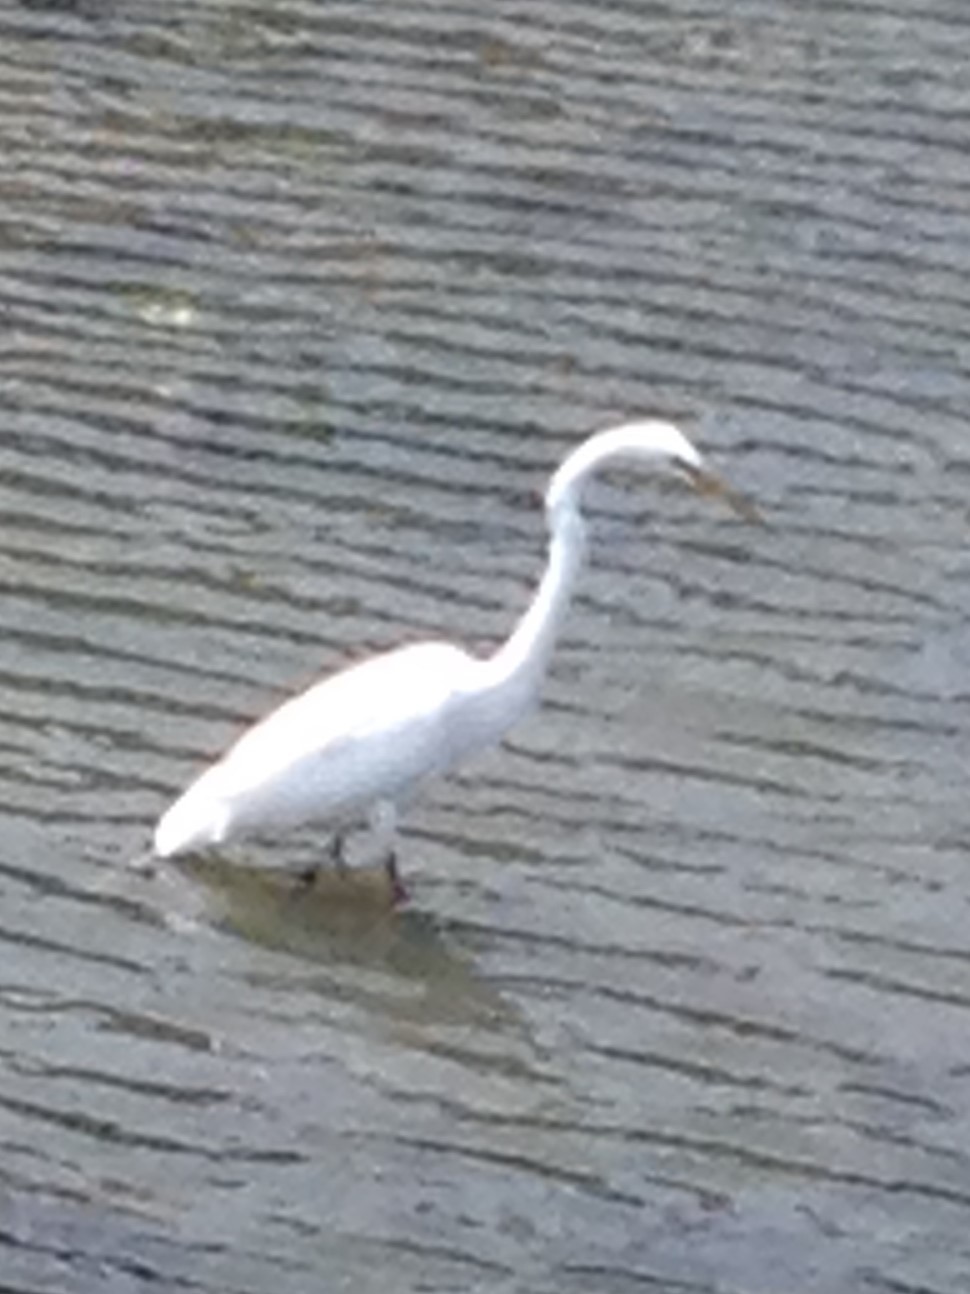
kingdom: Animalia
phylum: Chordata
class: Aves
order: Pelecaniformes
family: Ardeidae
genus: Ardea
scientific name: Ardea alba
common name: Great egret
